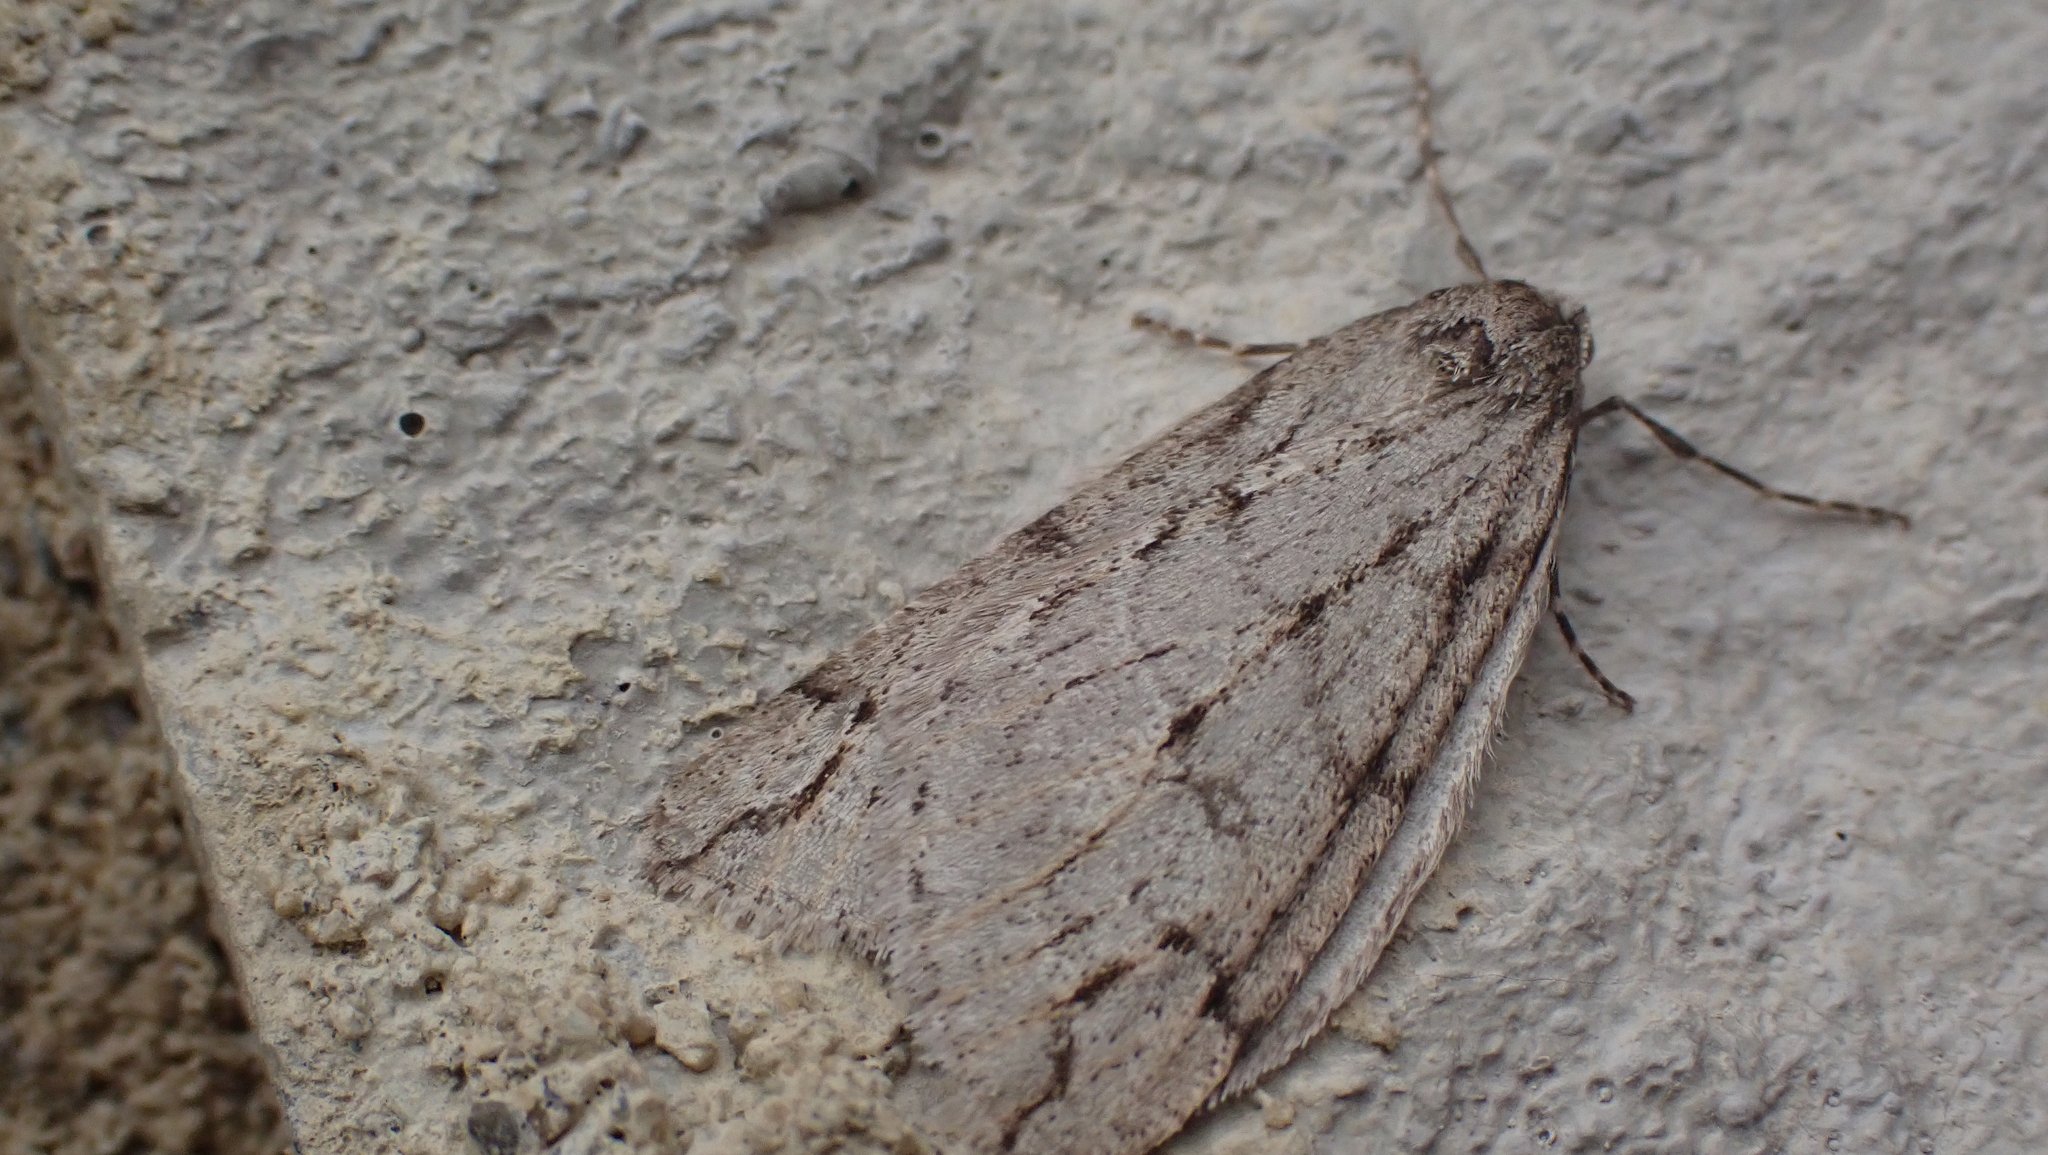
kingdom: Animalia
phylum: Arthropoda
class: Insecta
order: Lepidoptera
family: Geometridae
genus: Paleacrita
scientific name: Paleacrita vernata
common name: Spring cankerworm
